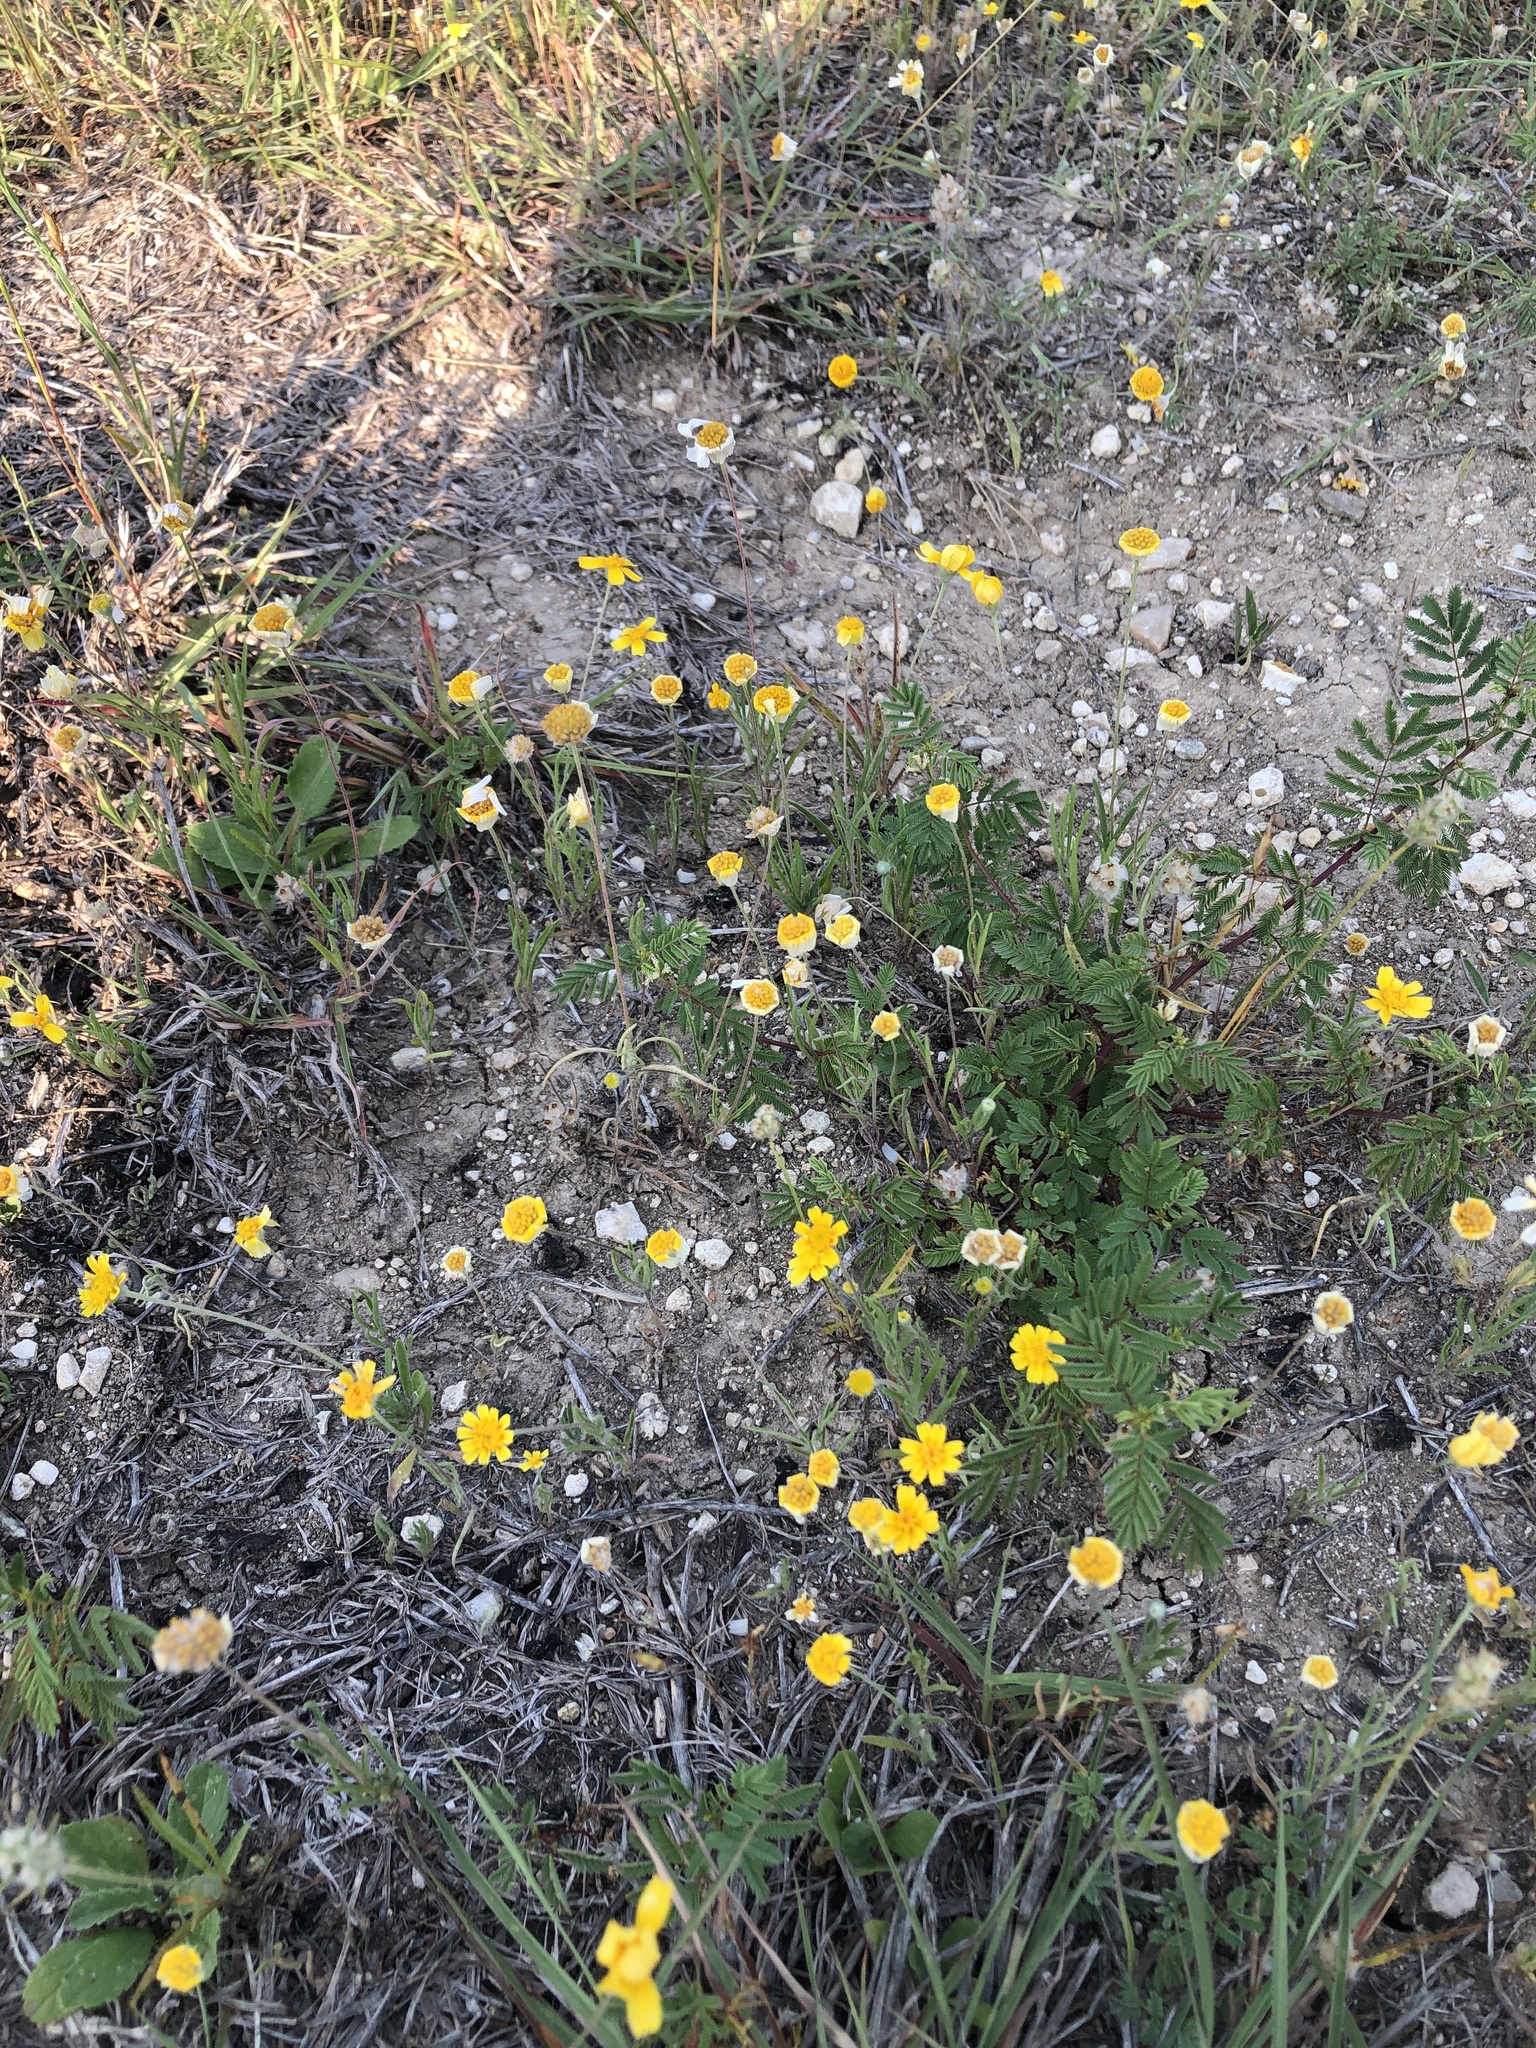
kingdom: Plantae
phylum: Tracheophyta
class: Magnoliopsida
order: Asterales
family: Asteraceae
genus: Tetraneuris
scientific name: Tetraneuris linearifolia
